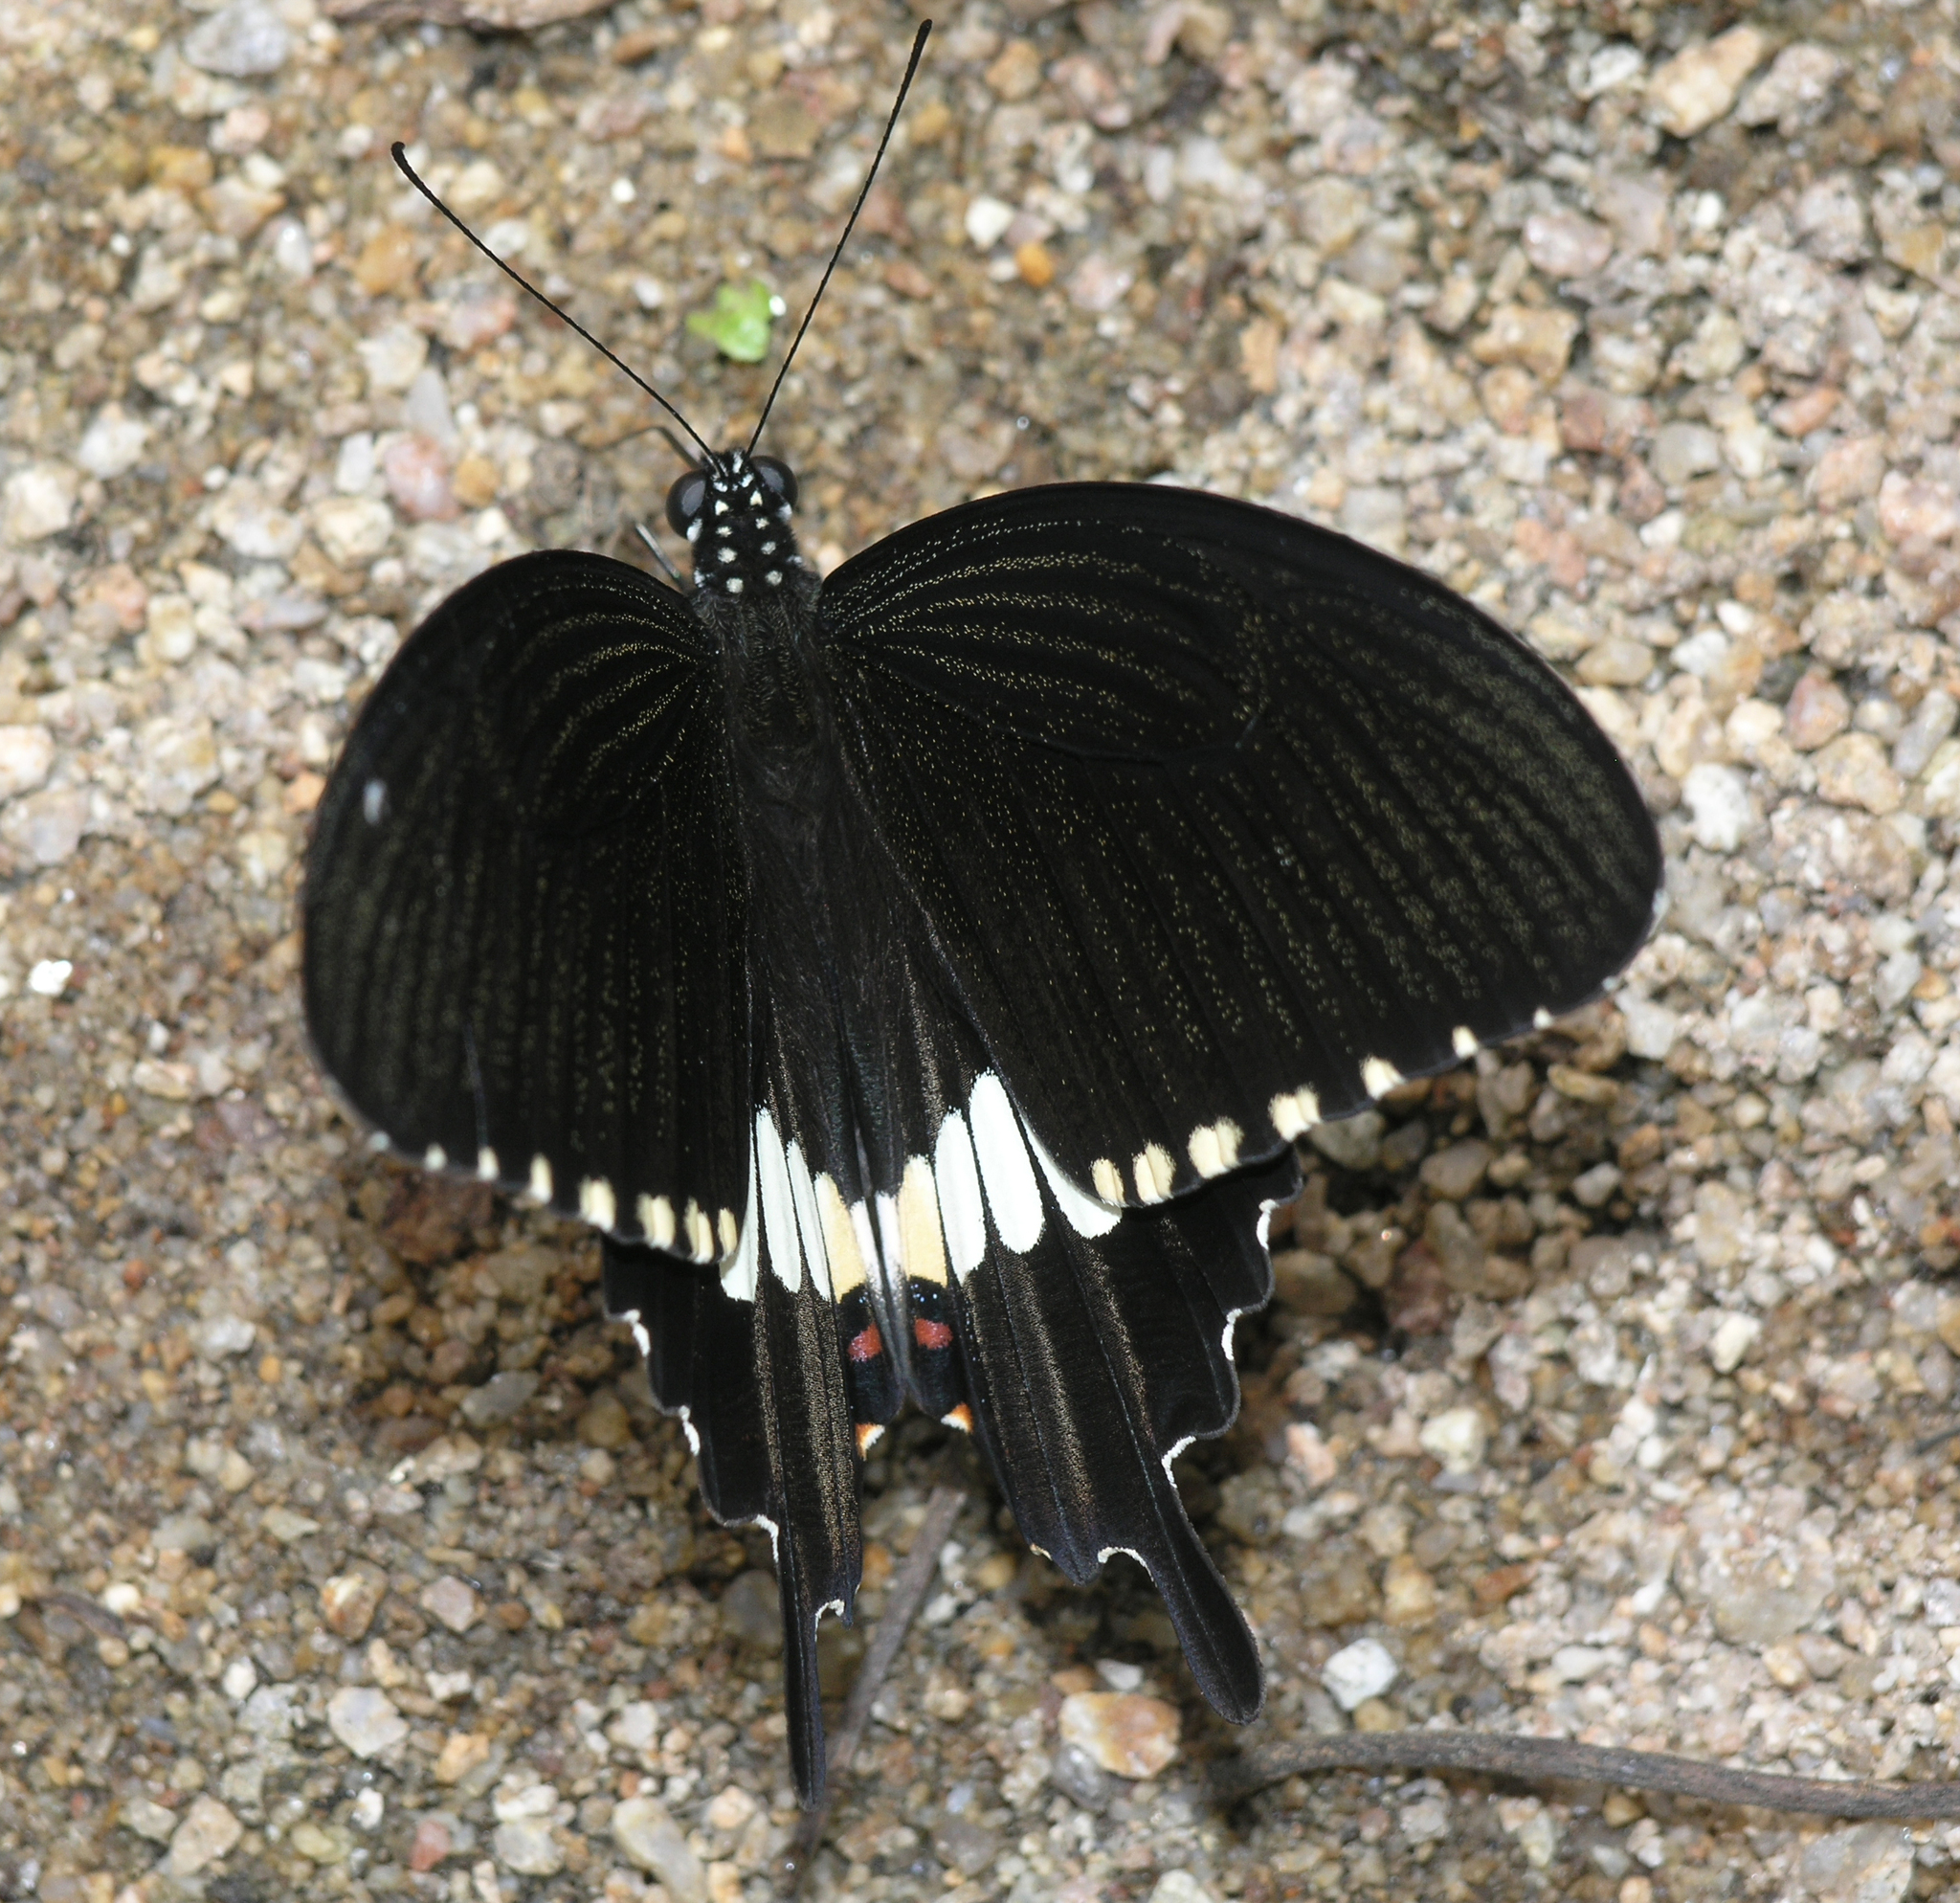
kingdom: Animalia
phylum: Arthropoda
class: Insecta
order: Lepidoptera
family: Papilionidae
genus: Papilio
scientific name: Papilio polytes
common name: Common mormon
